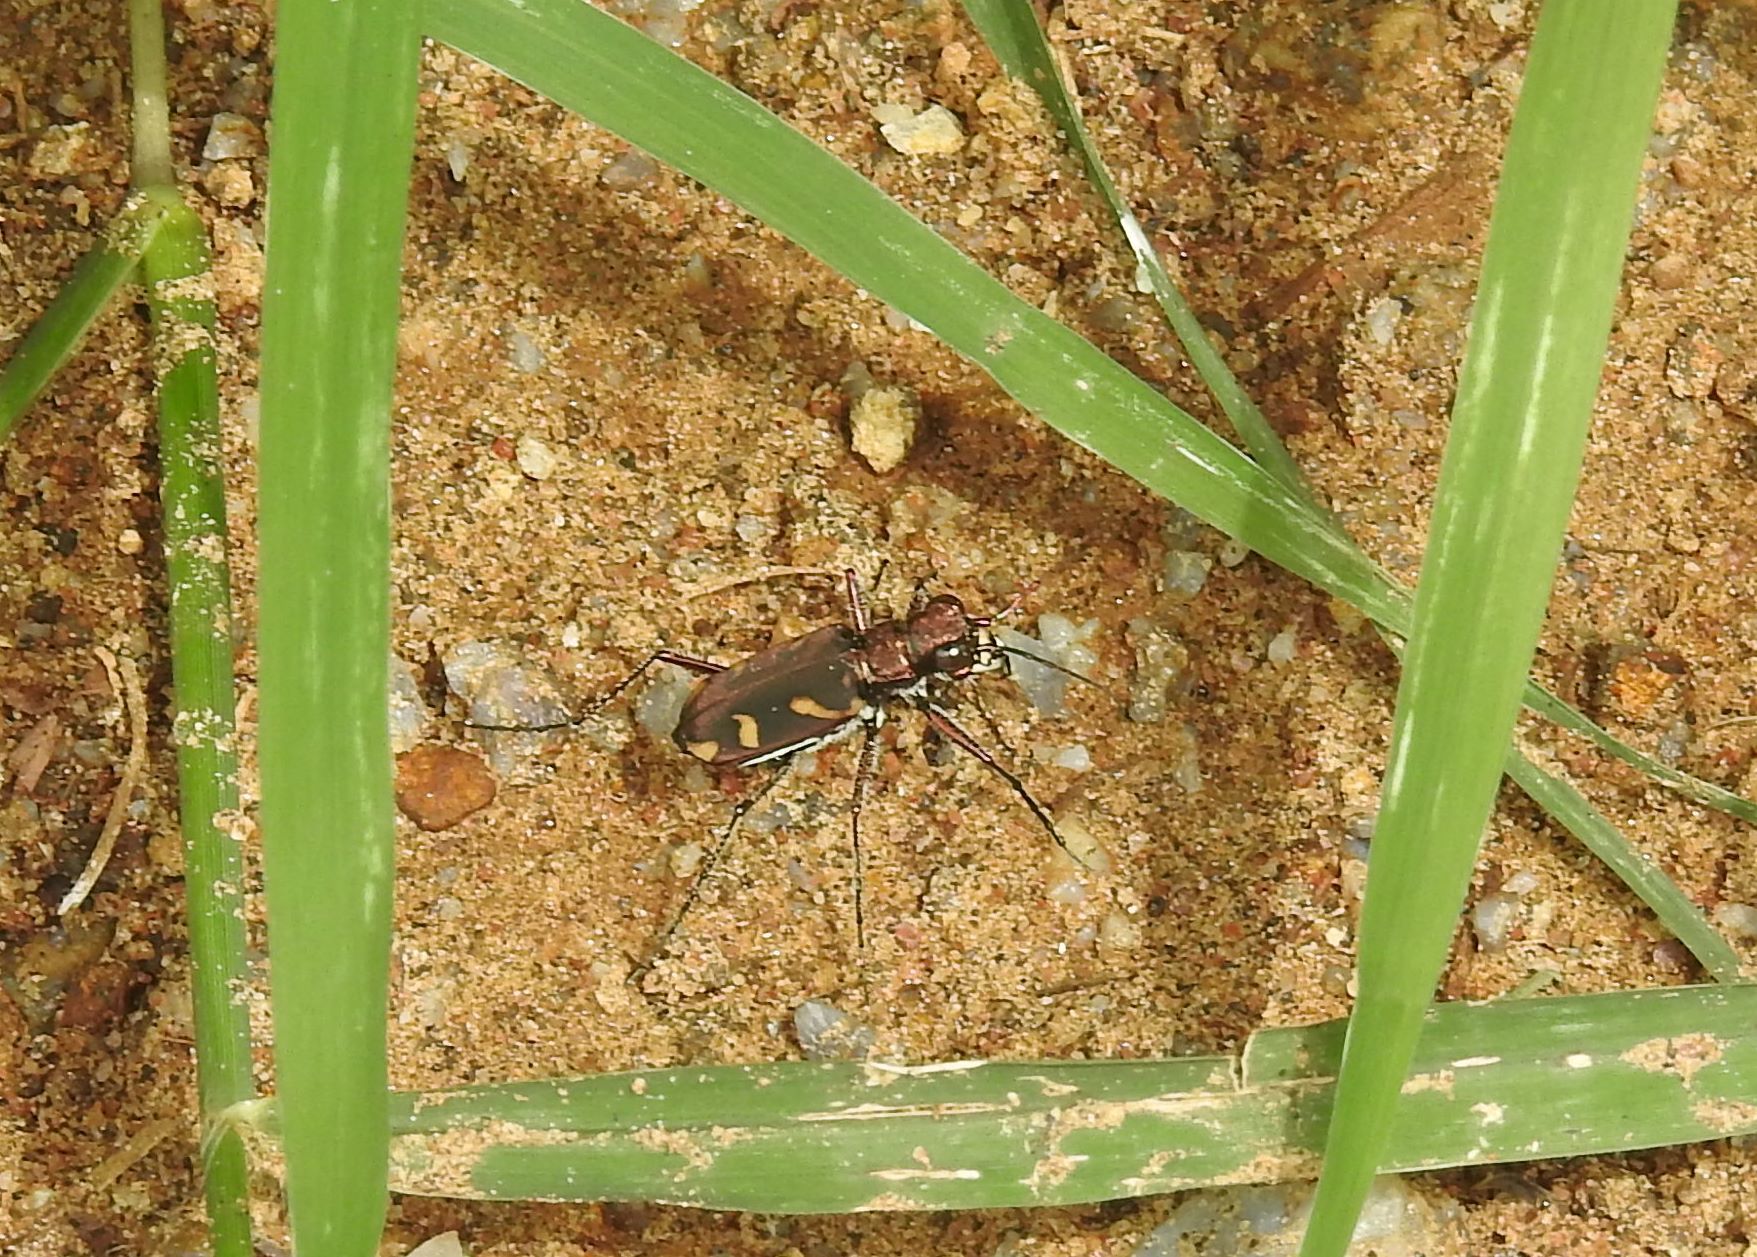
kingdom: Animalia
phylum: Arthropoda
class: Insecta
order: Coleoptera
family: Carabidae
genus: Cicindela
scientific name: Cicindela calligramma
